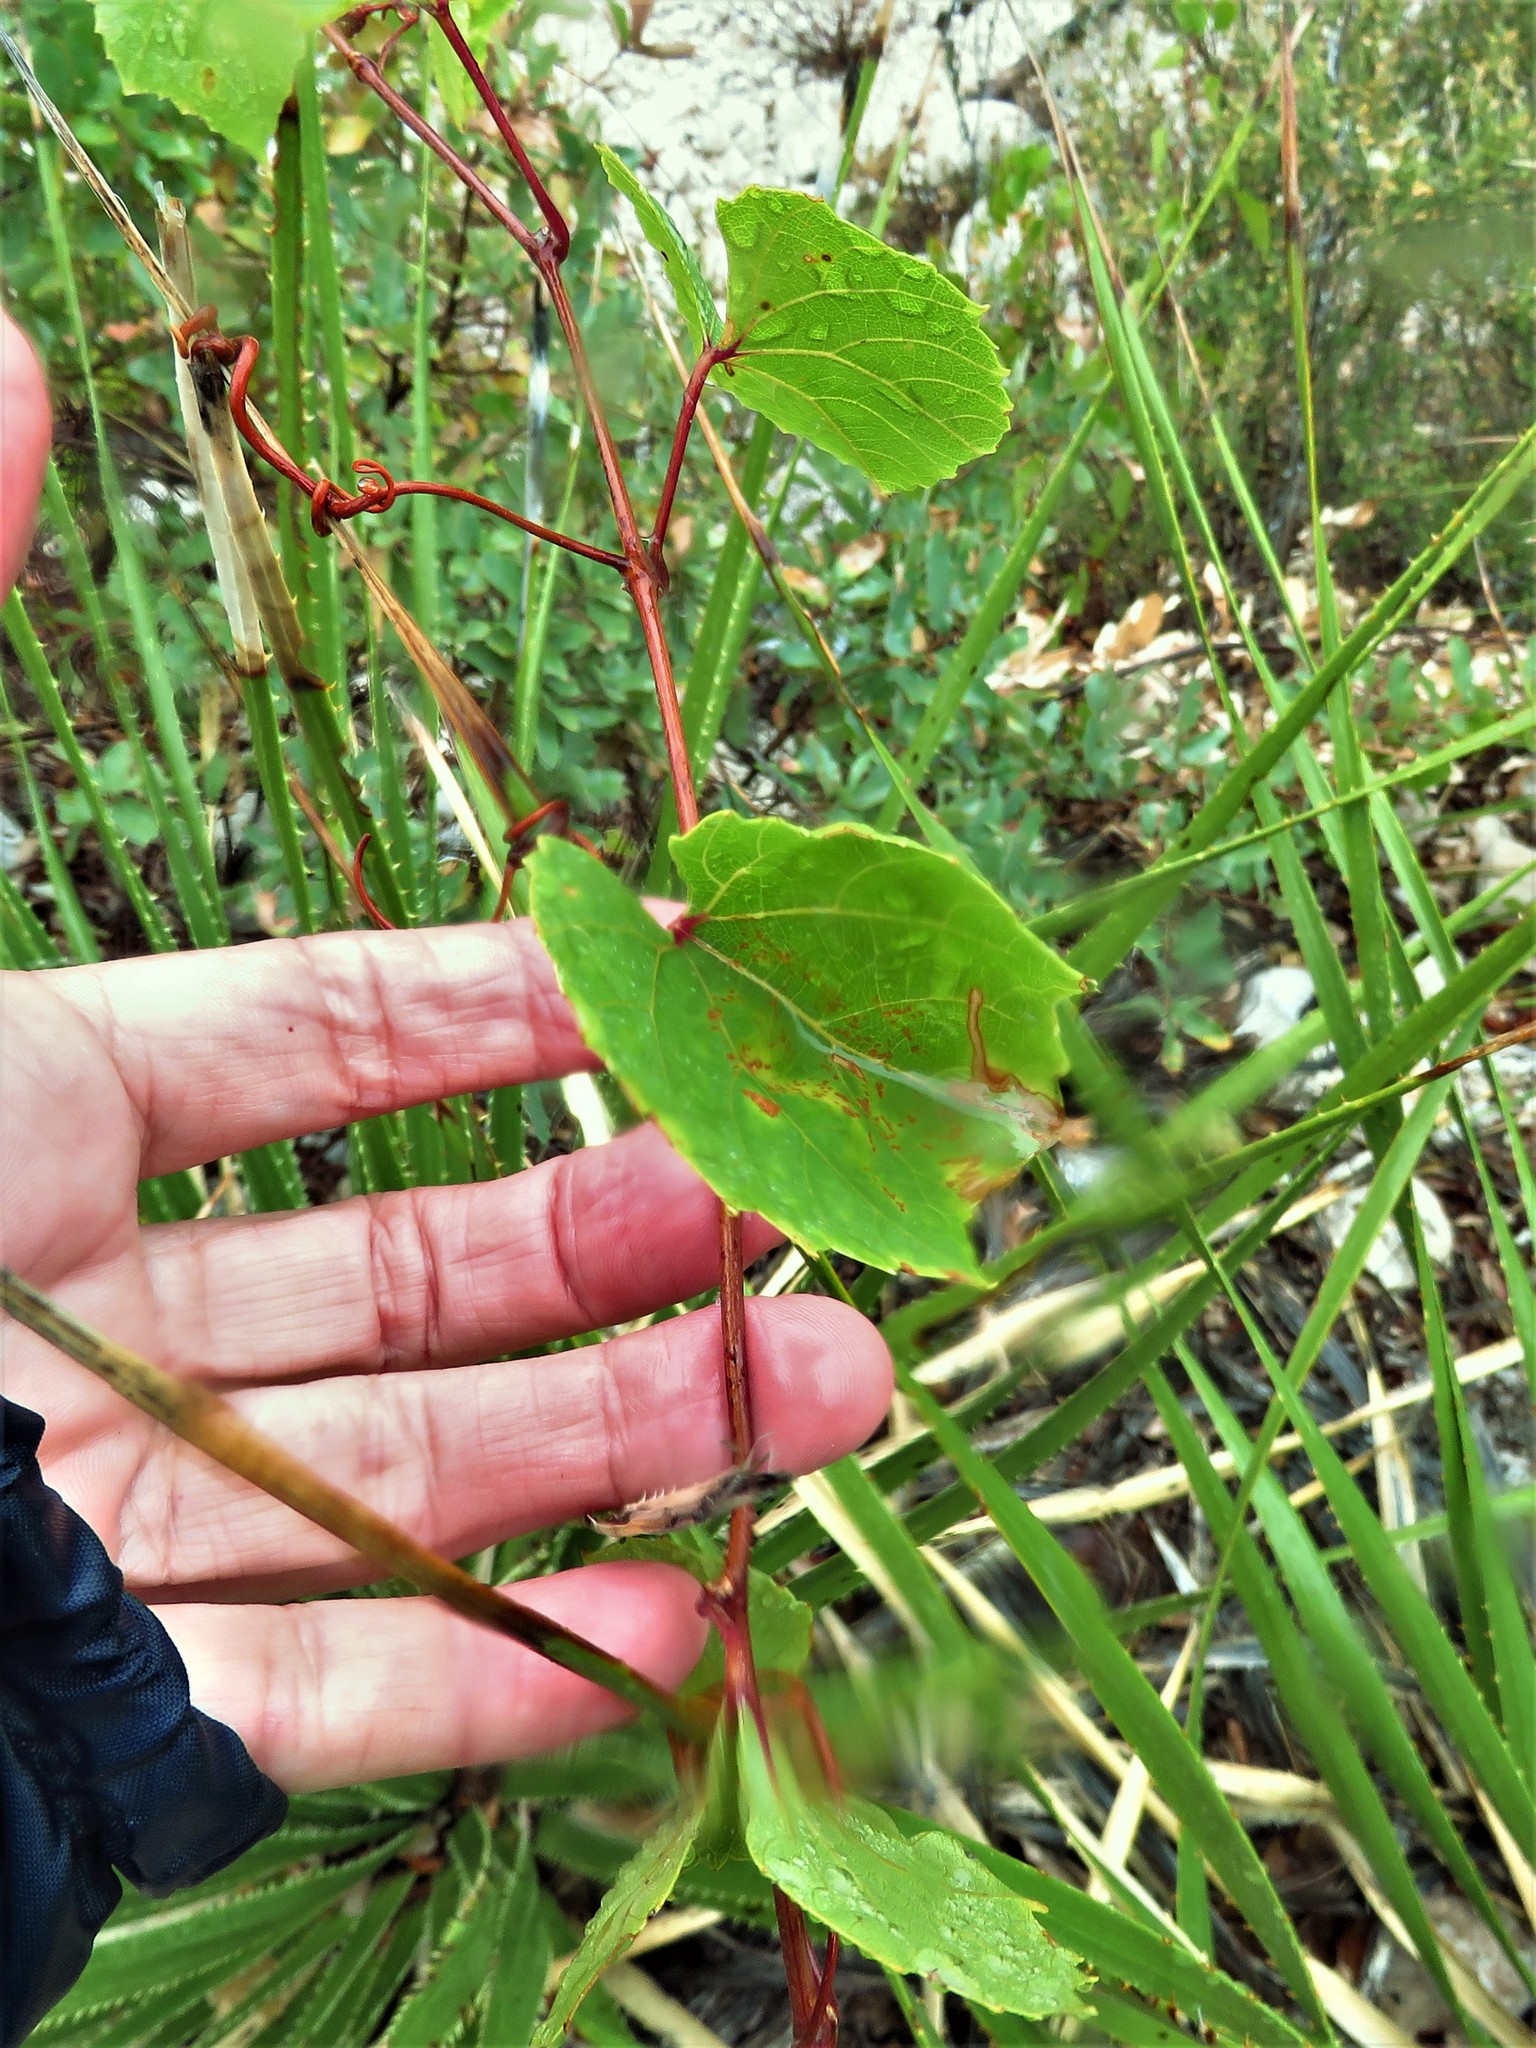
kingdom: Plantae
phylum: Tracheophyta
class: Magnoliopsida
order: Vitales
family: Vitaceae
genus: Vitis
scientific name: Vitis arizonica
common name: Canyon grape
